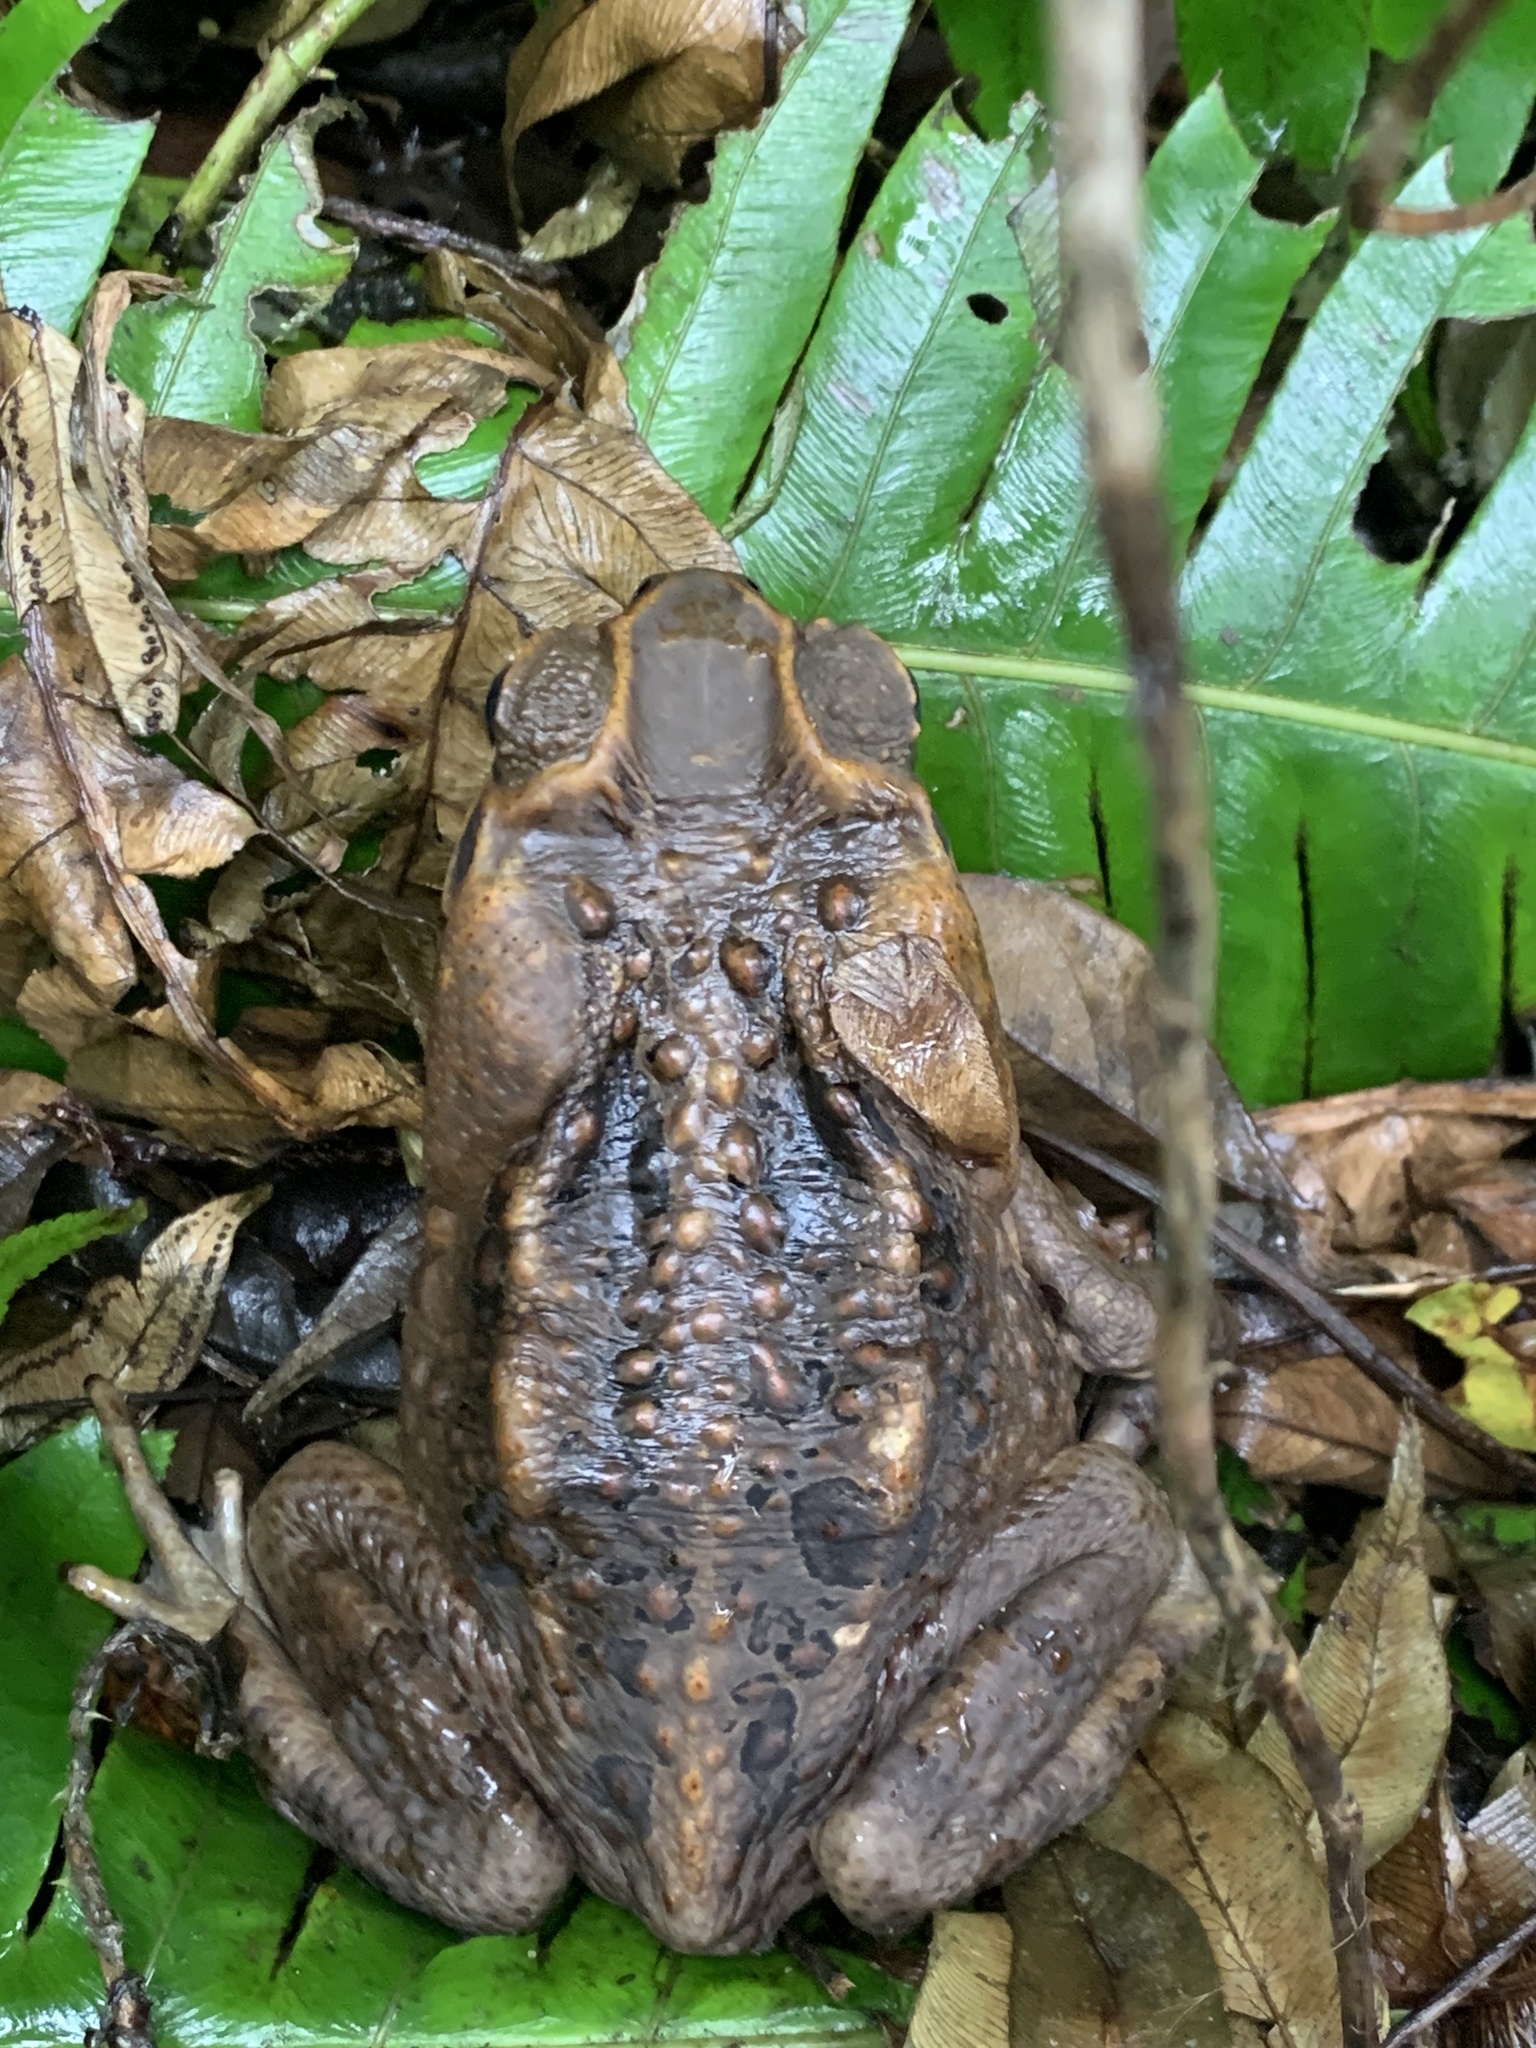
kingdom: Animalia
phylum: Chordata
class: Amphibia
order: Anura
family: Bufonidae
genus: Rhinella
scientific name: Rhinella marina
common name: Cane toad
